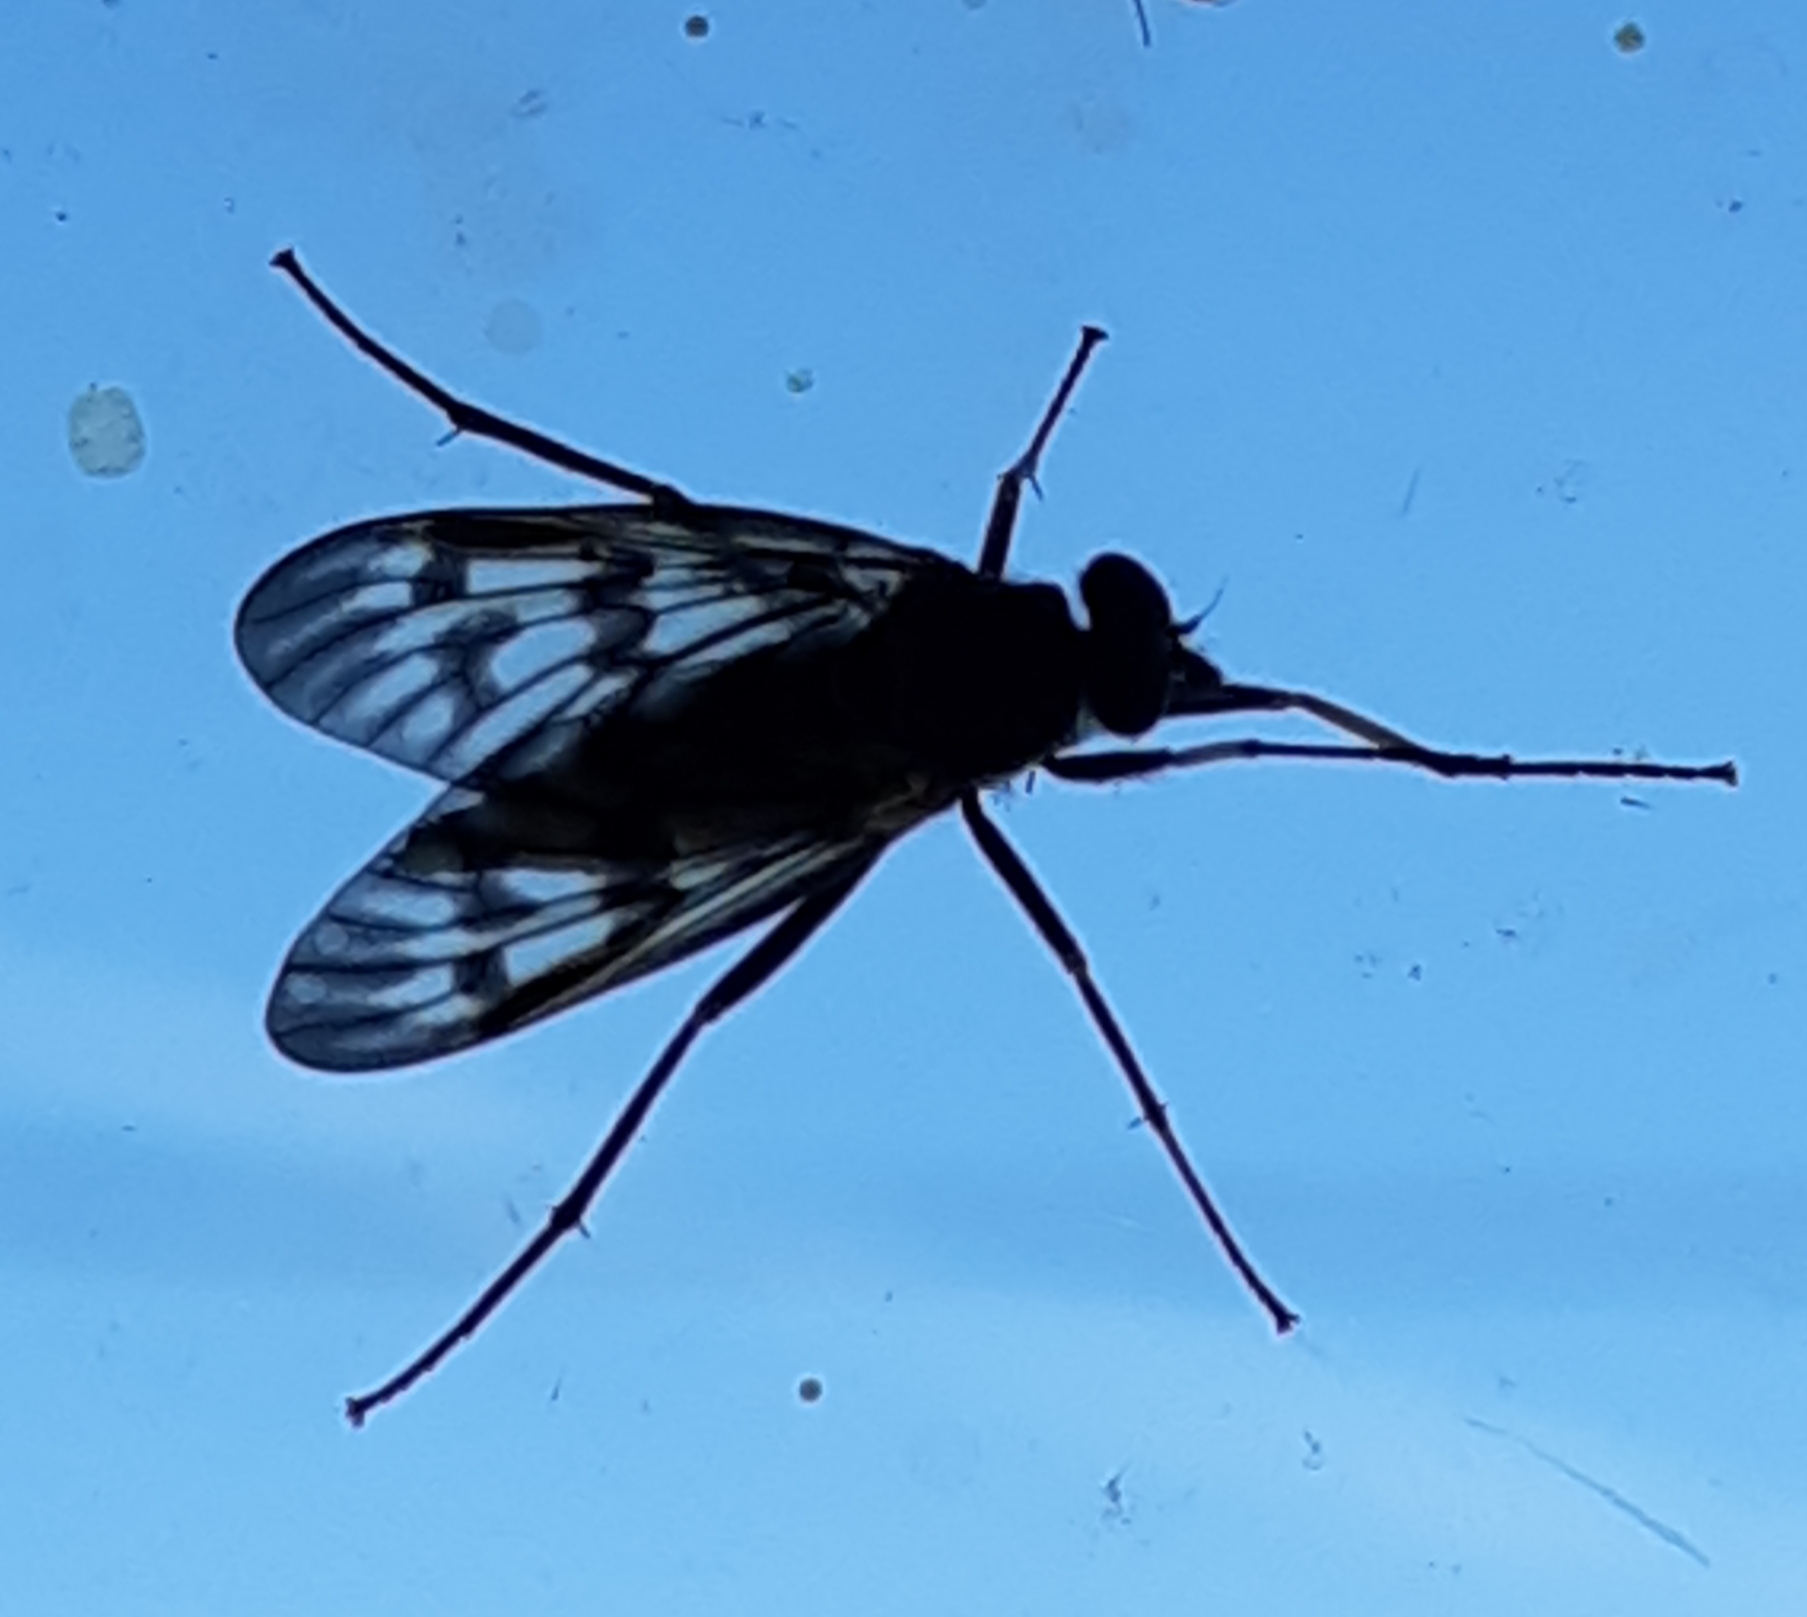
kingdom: Animalia
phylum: Arthropoda
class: Insecta
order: Diptera
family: Rhagionidae
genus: Rhagio
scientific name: Rhagio mystaceus
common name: Common snipe fly
